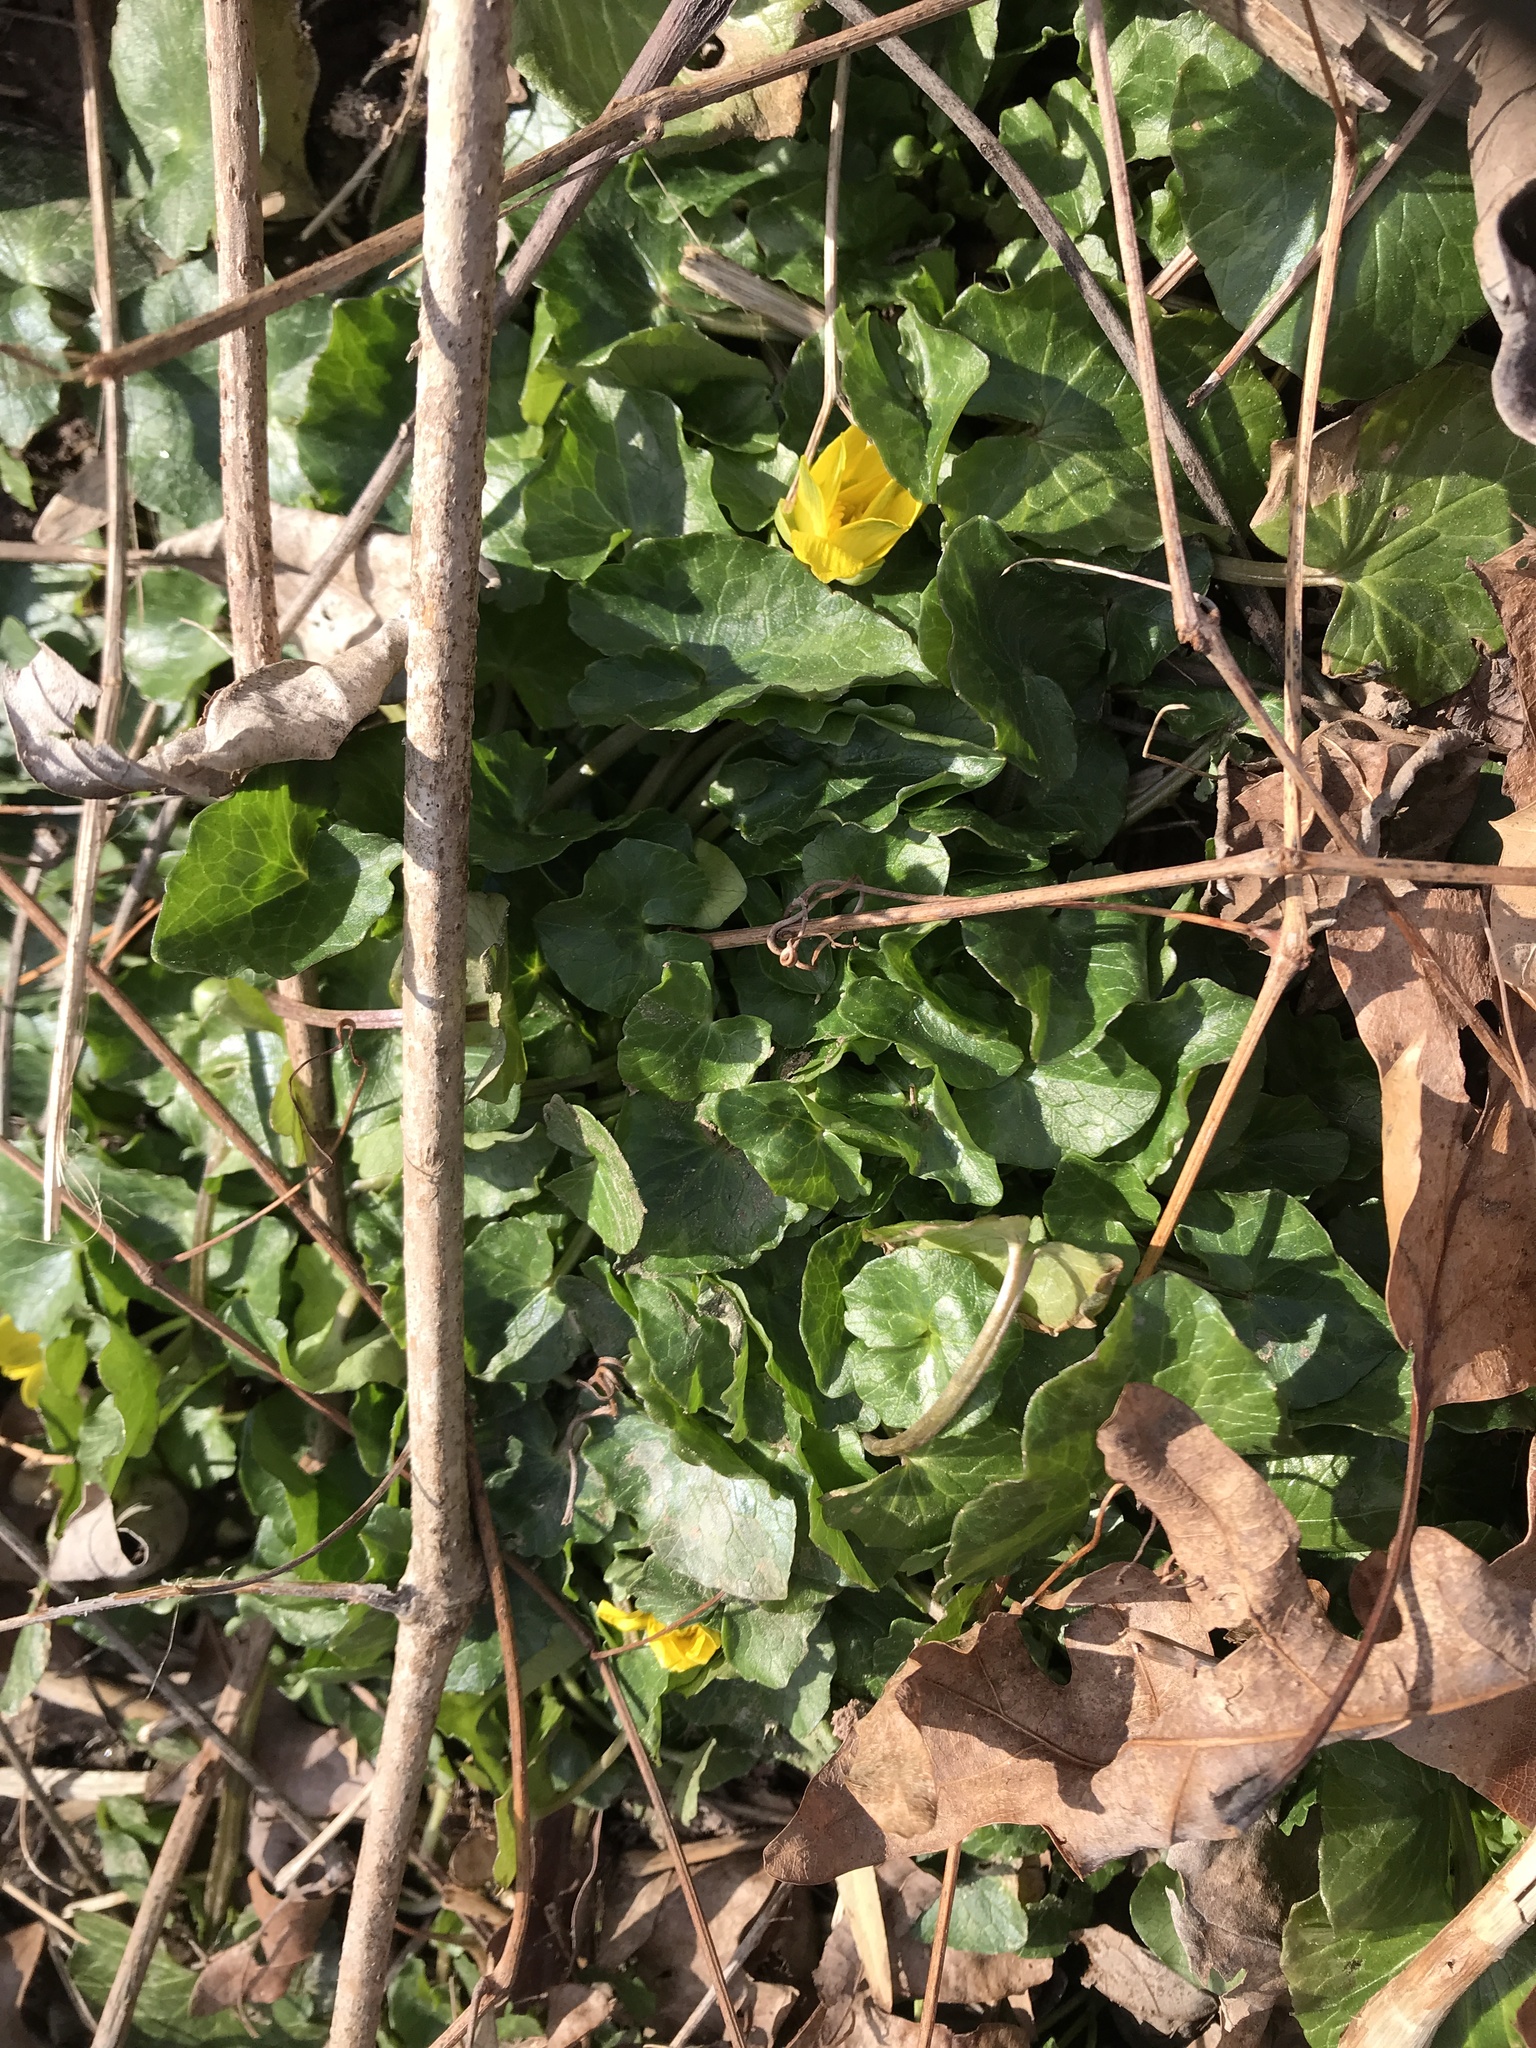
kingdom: Plantae
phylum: Tracheophyta
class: Magnoliopsida
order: Ranunculales
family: Ranunculaceae
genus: Ficaria
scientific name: Ficaria verna
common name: Lesser celandine
